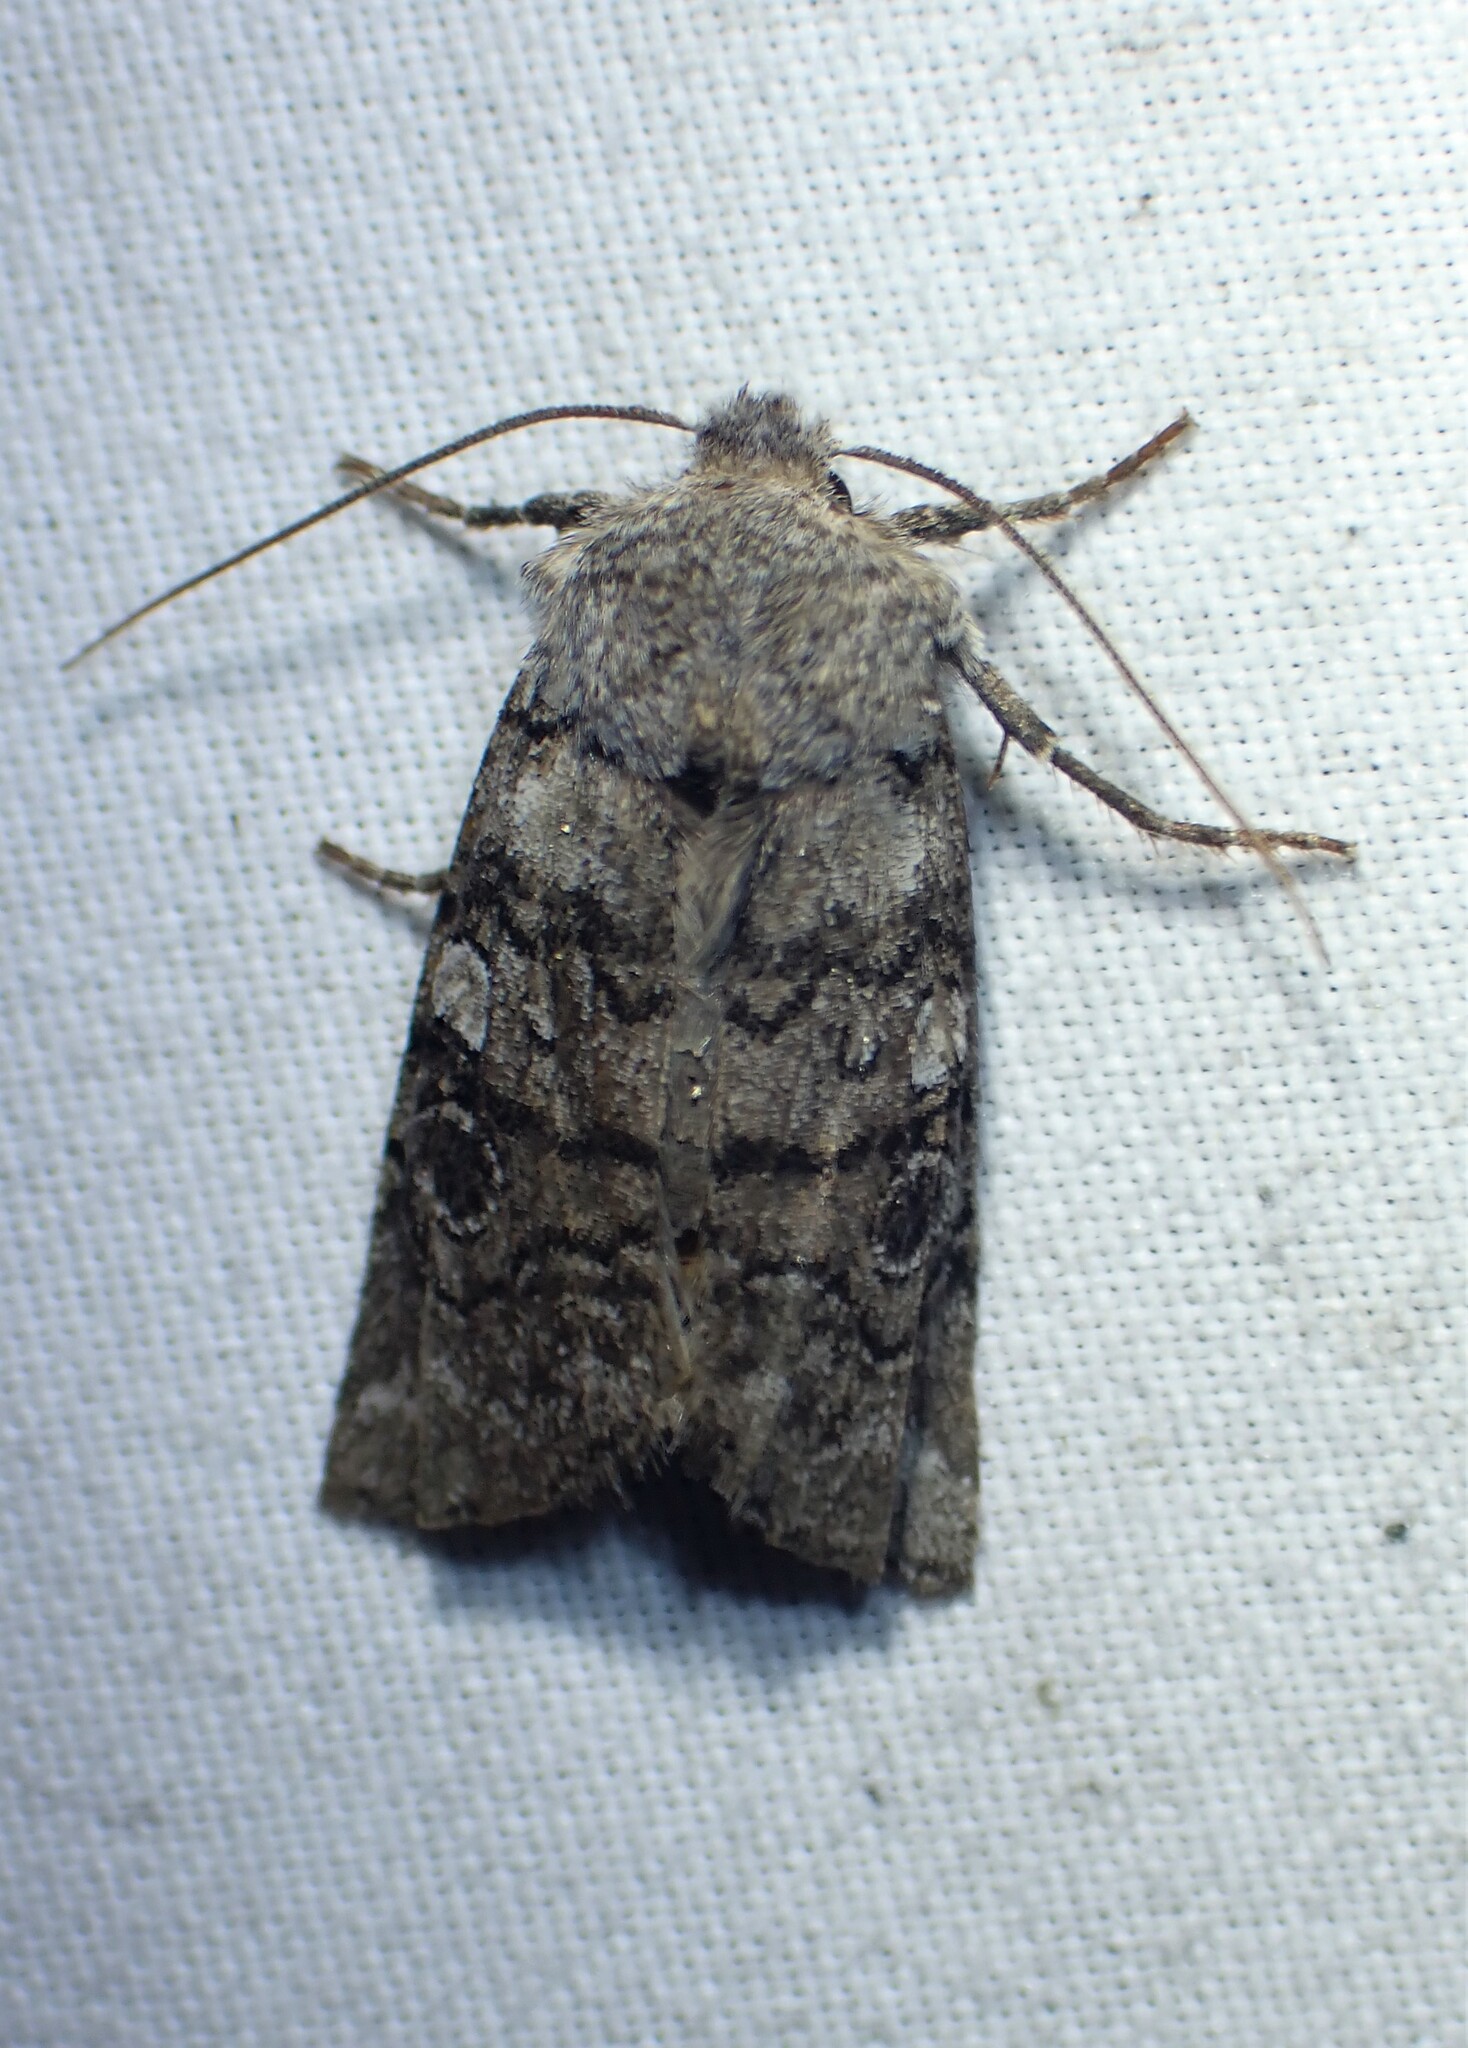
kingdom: Animalia
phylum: Arthropoda
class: Insecta
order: Lepidoptera
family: Noctuidae
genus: Litholomia
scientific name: Litholomia napaea
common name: False pinion moth
